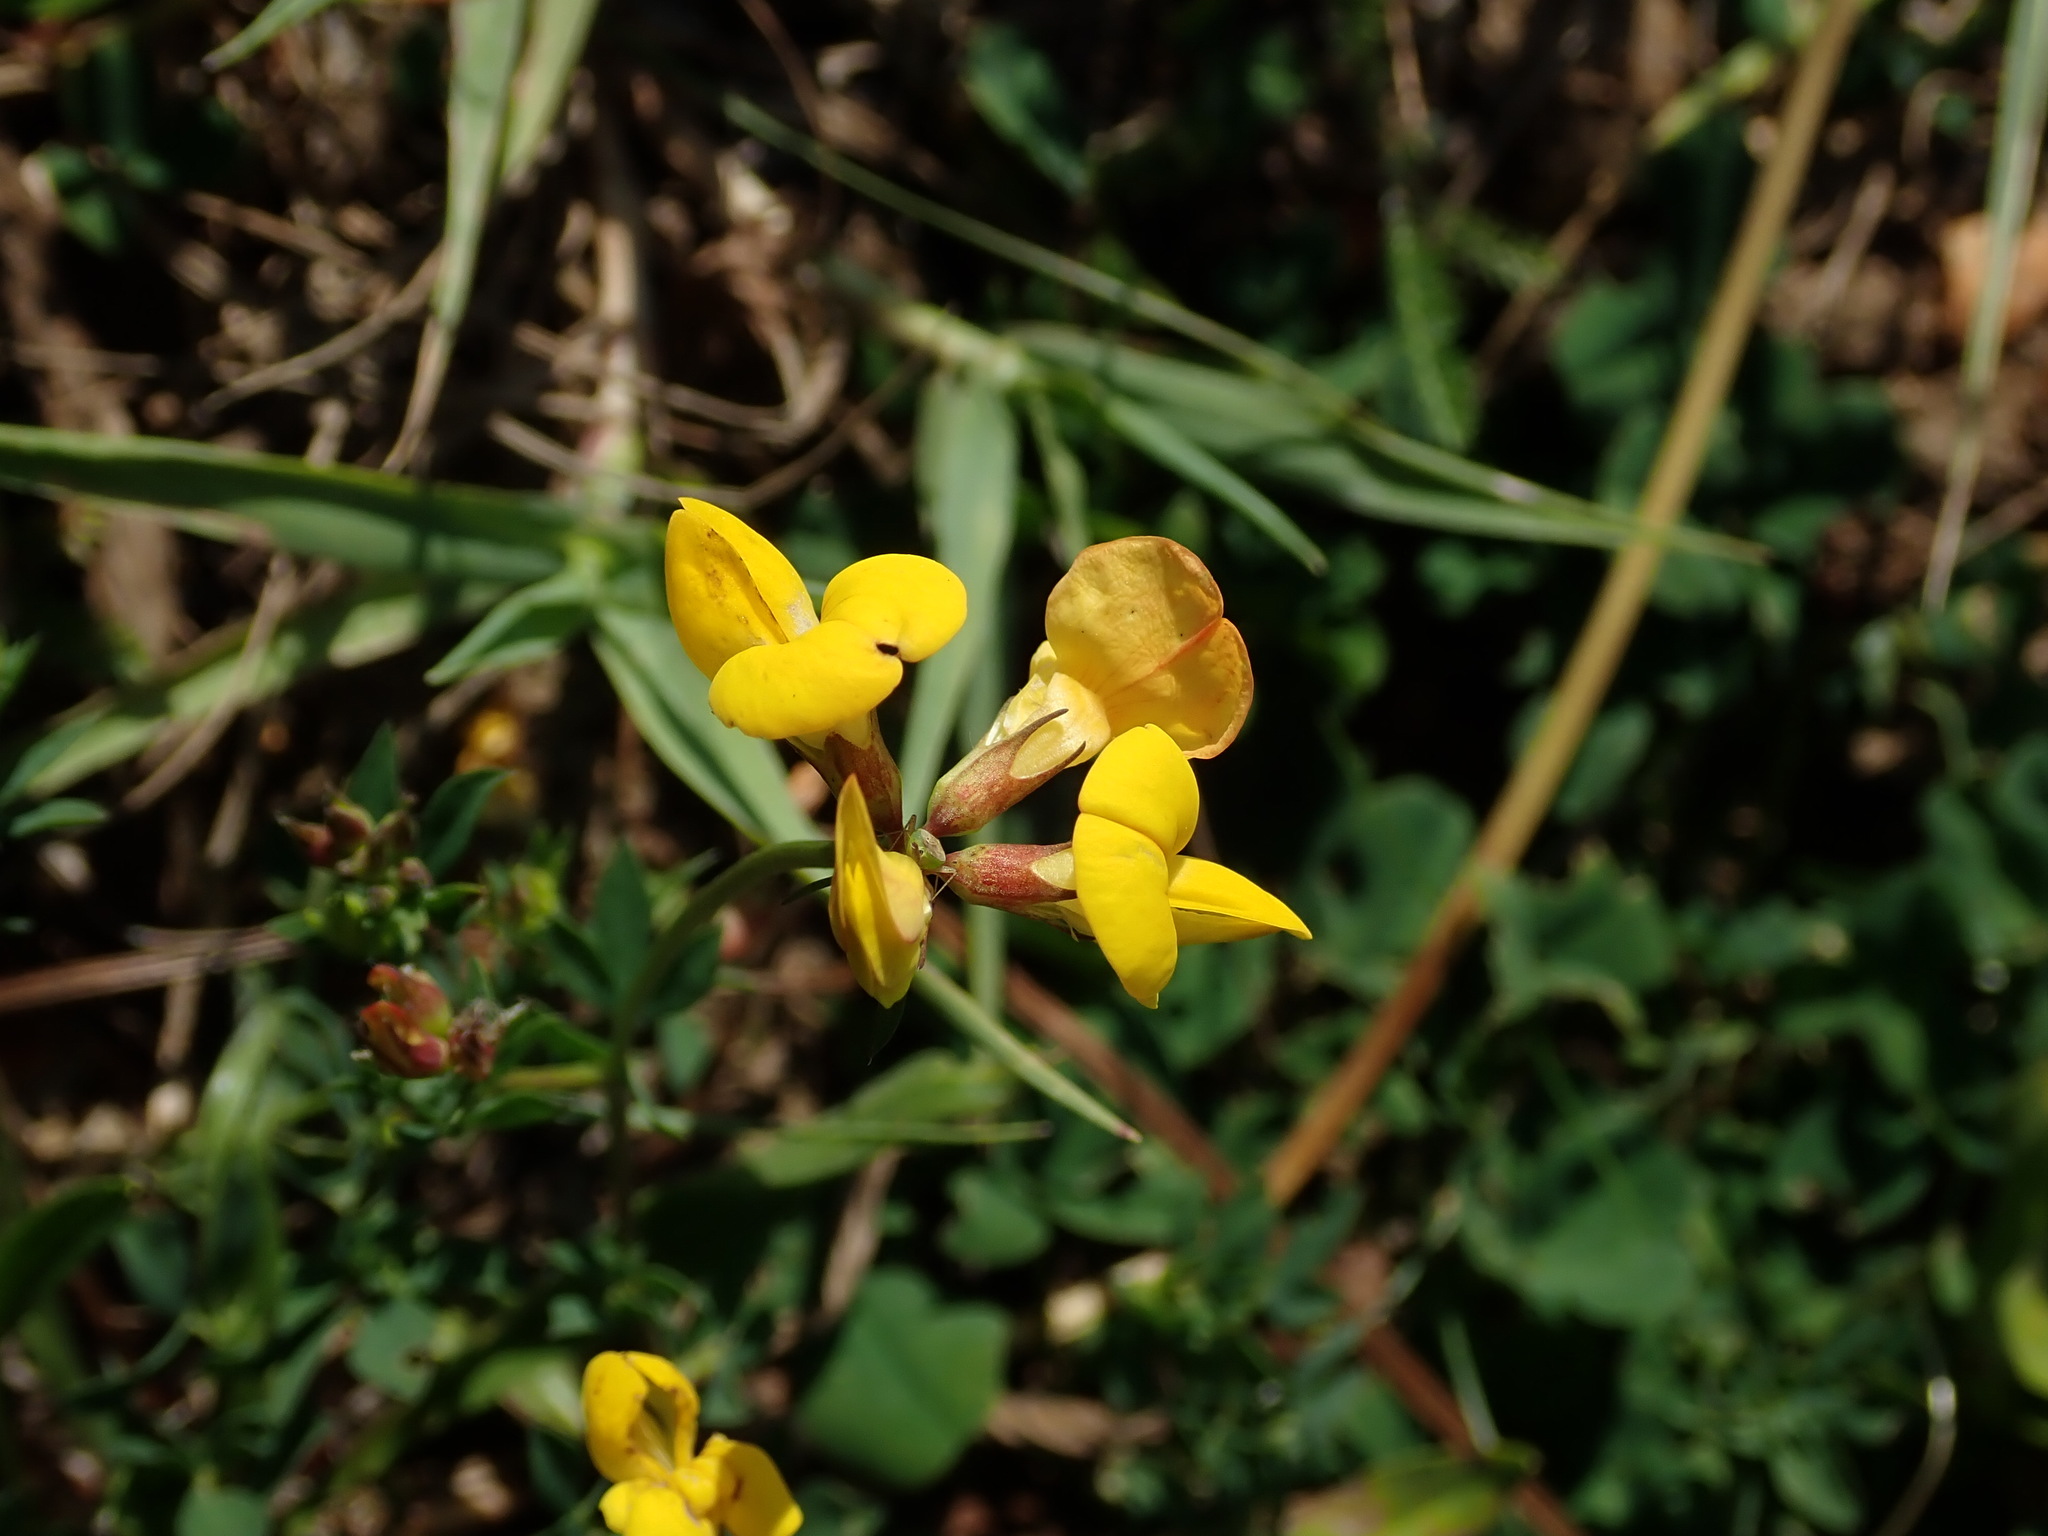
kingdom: Plantae
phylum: Tracheophyta
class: Magnoliopsida
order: Fabales
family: Fabaceae
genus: Lotus
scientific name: Lotus corniculatus
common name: Common bird's-foot-trefoil
